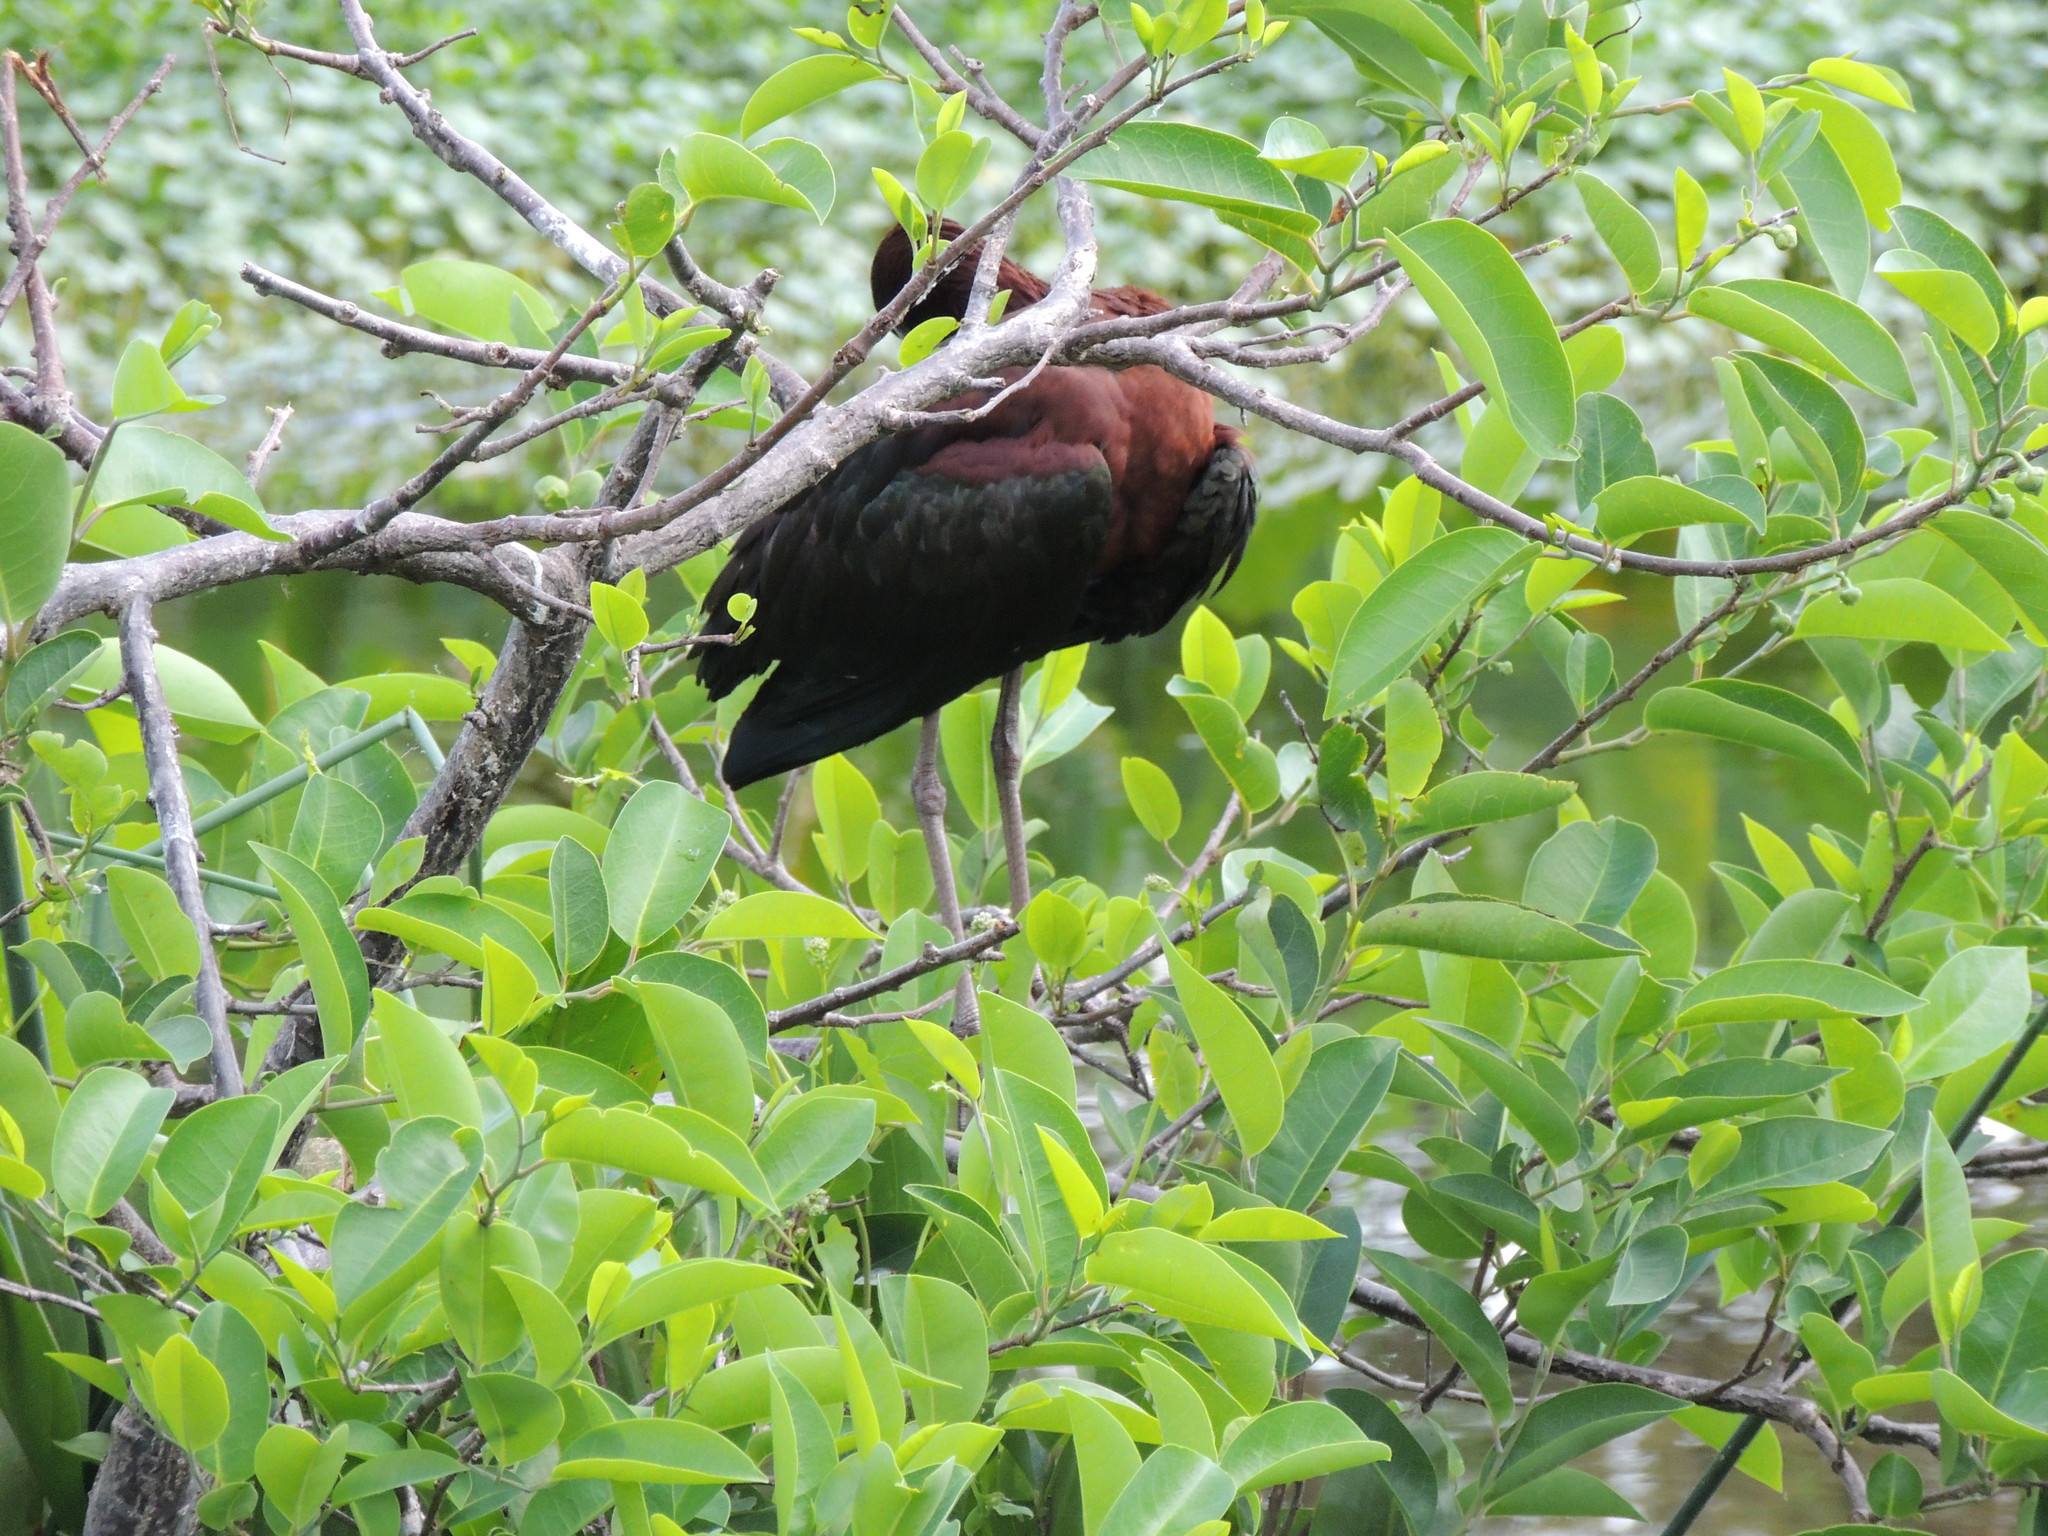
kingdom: Animalia
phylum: Chordata
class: Aves
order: Pelecaniformes
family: Threskiornithidae
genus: Plegadis
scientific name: Plegadis falcinellus
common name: Glossy ibis
